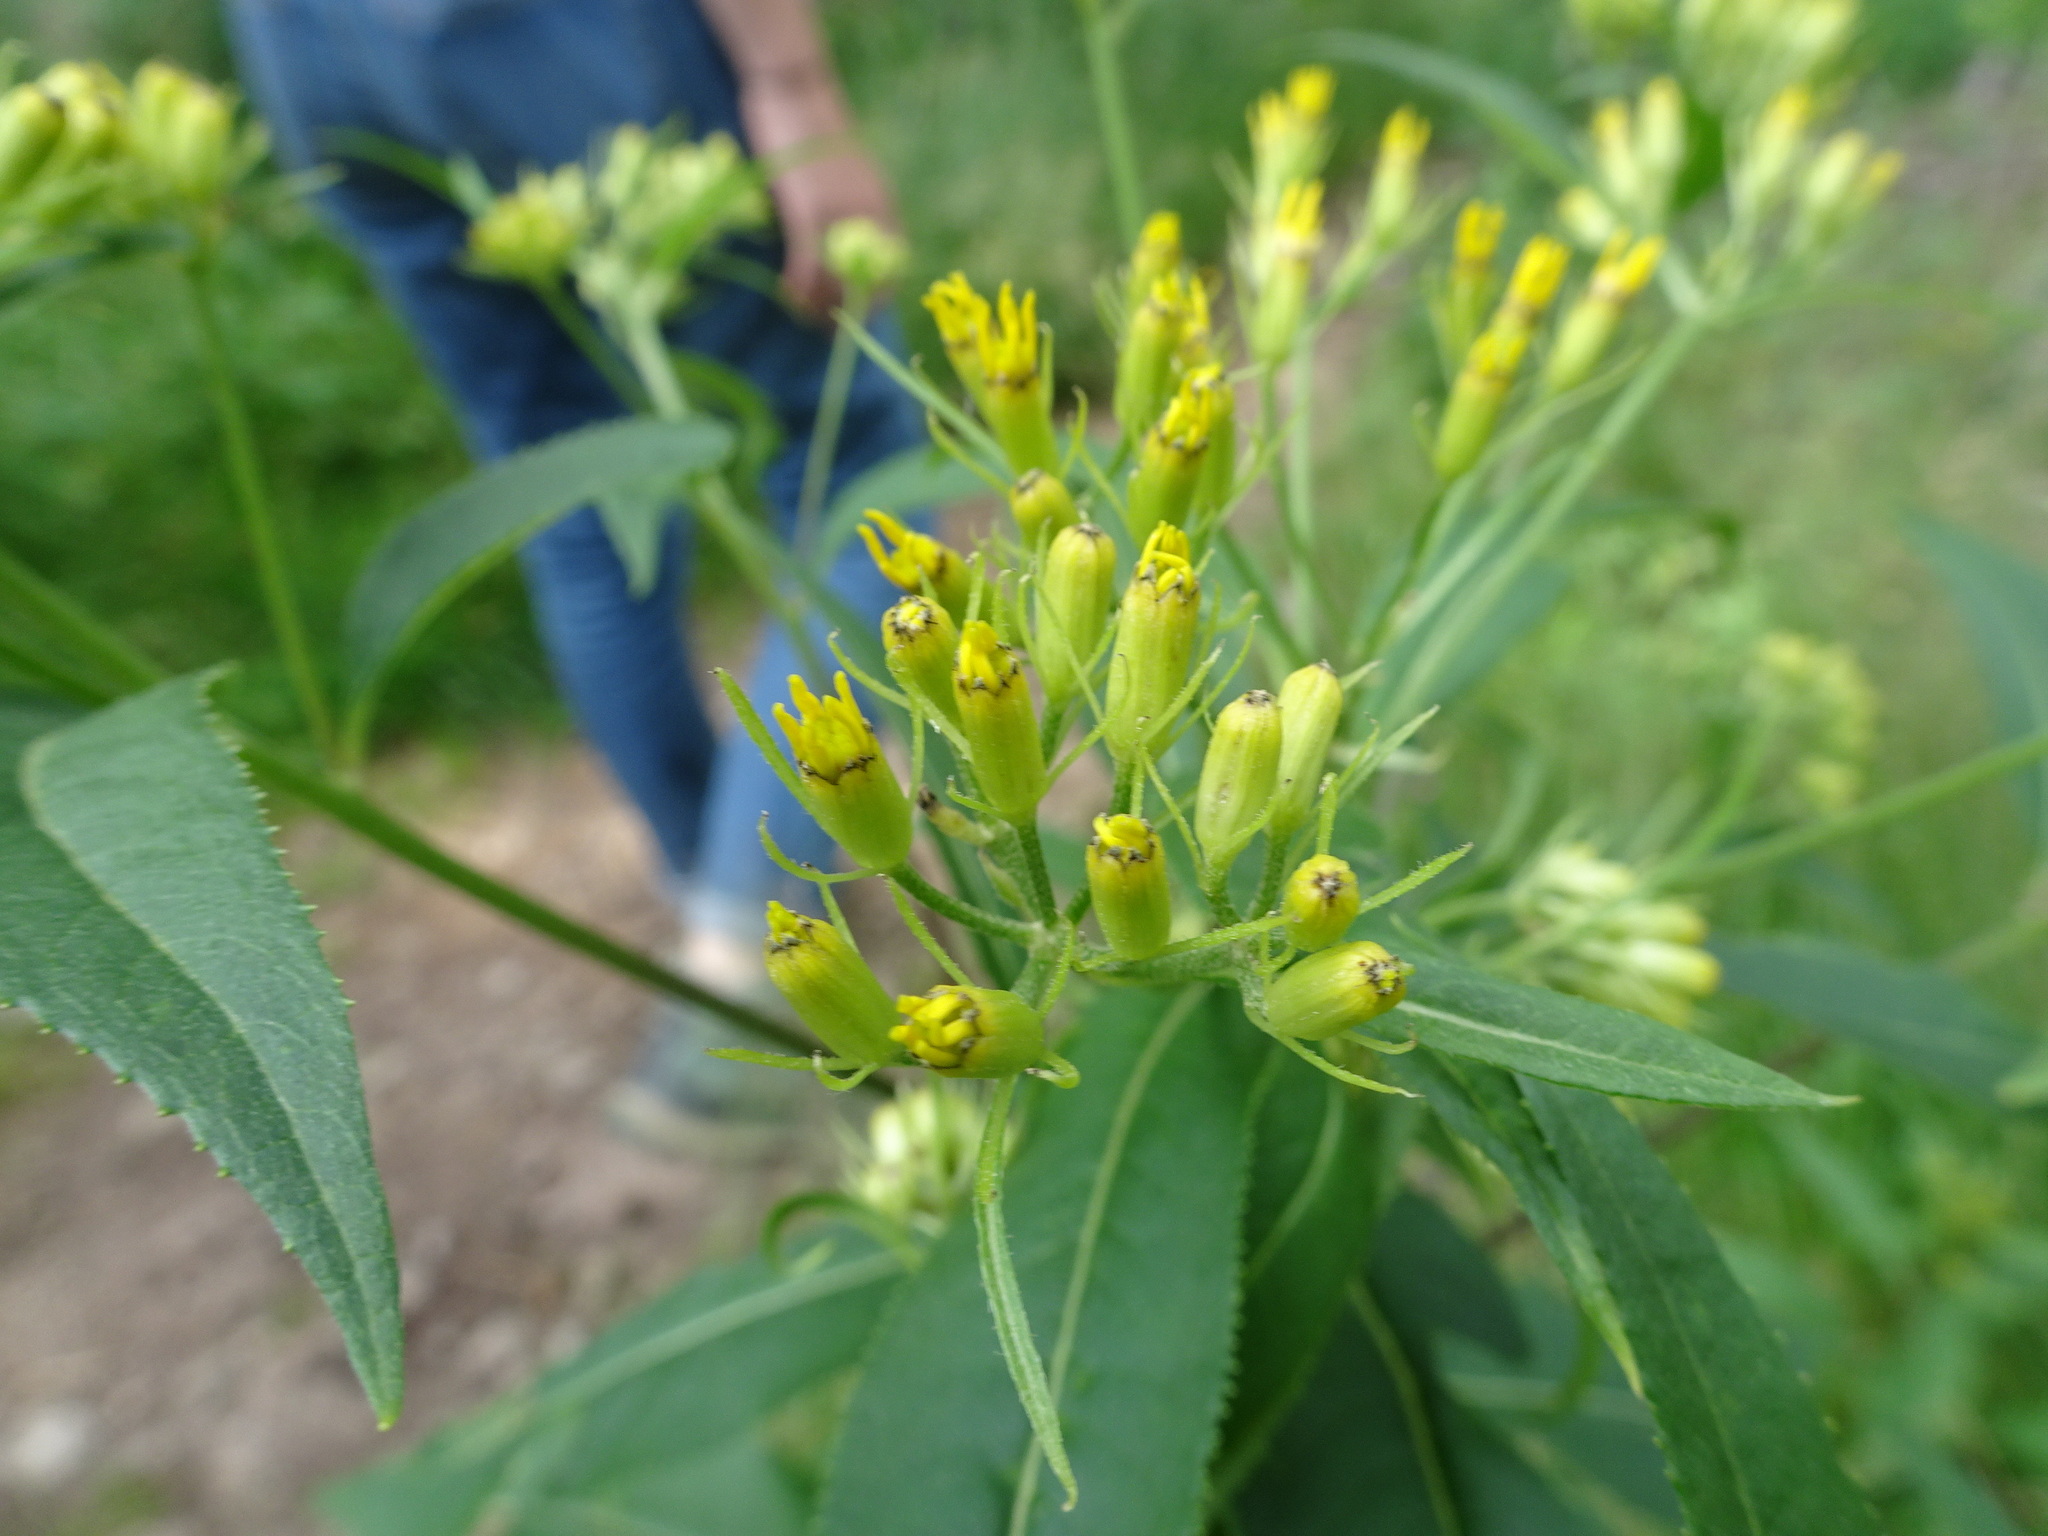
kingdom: Plantae
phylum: Tracheophyta
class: Magnoliopsida
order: Asterales
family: Asteraceae
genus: Senecio
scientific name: Senecio ovatus
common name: Wood ragwort
